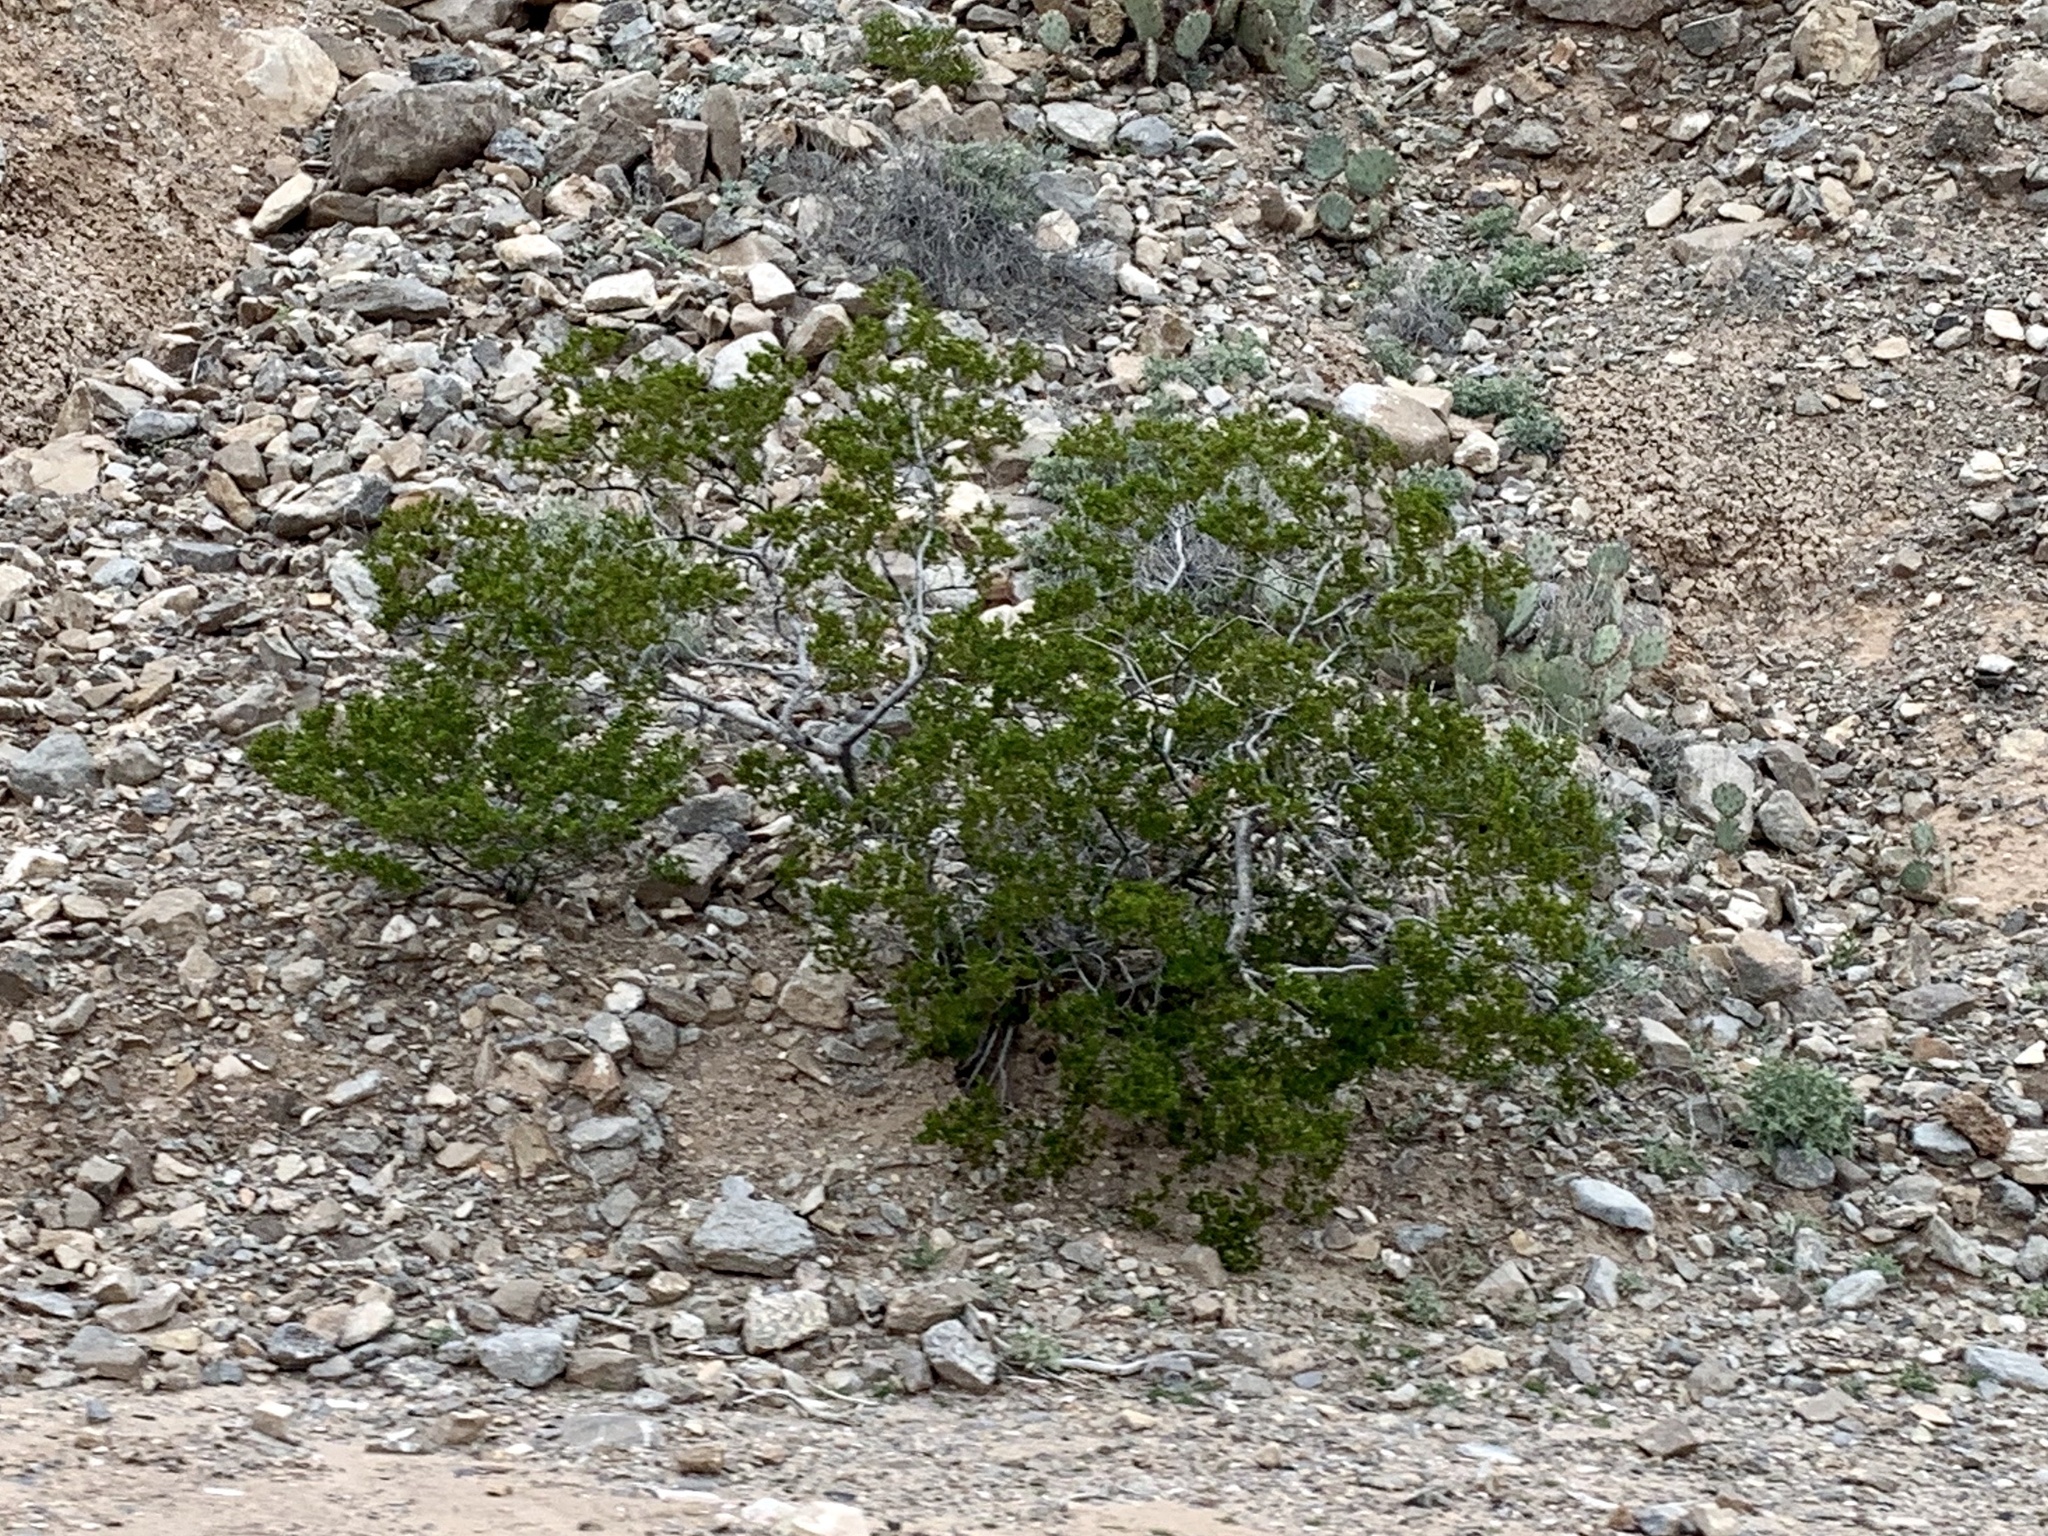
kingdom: Plantae
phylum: Tracheophyta
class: Magnoliopsida
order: Zygophyllales
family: Zygophyllaceae
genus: Larrea
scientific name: Larrea tridentata
